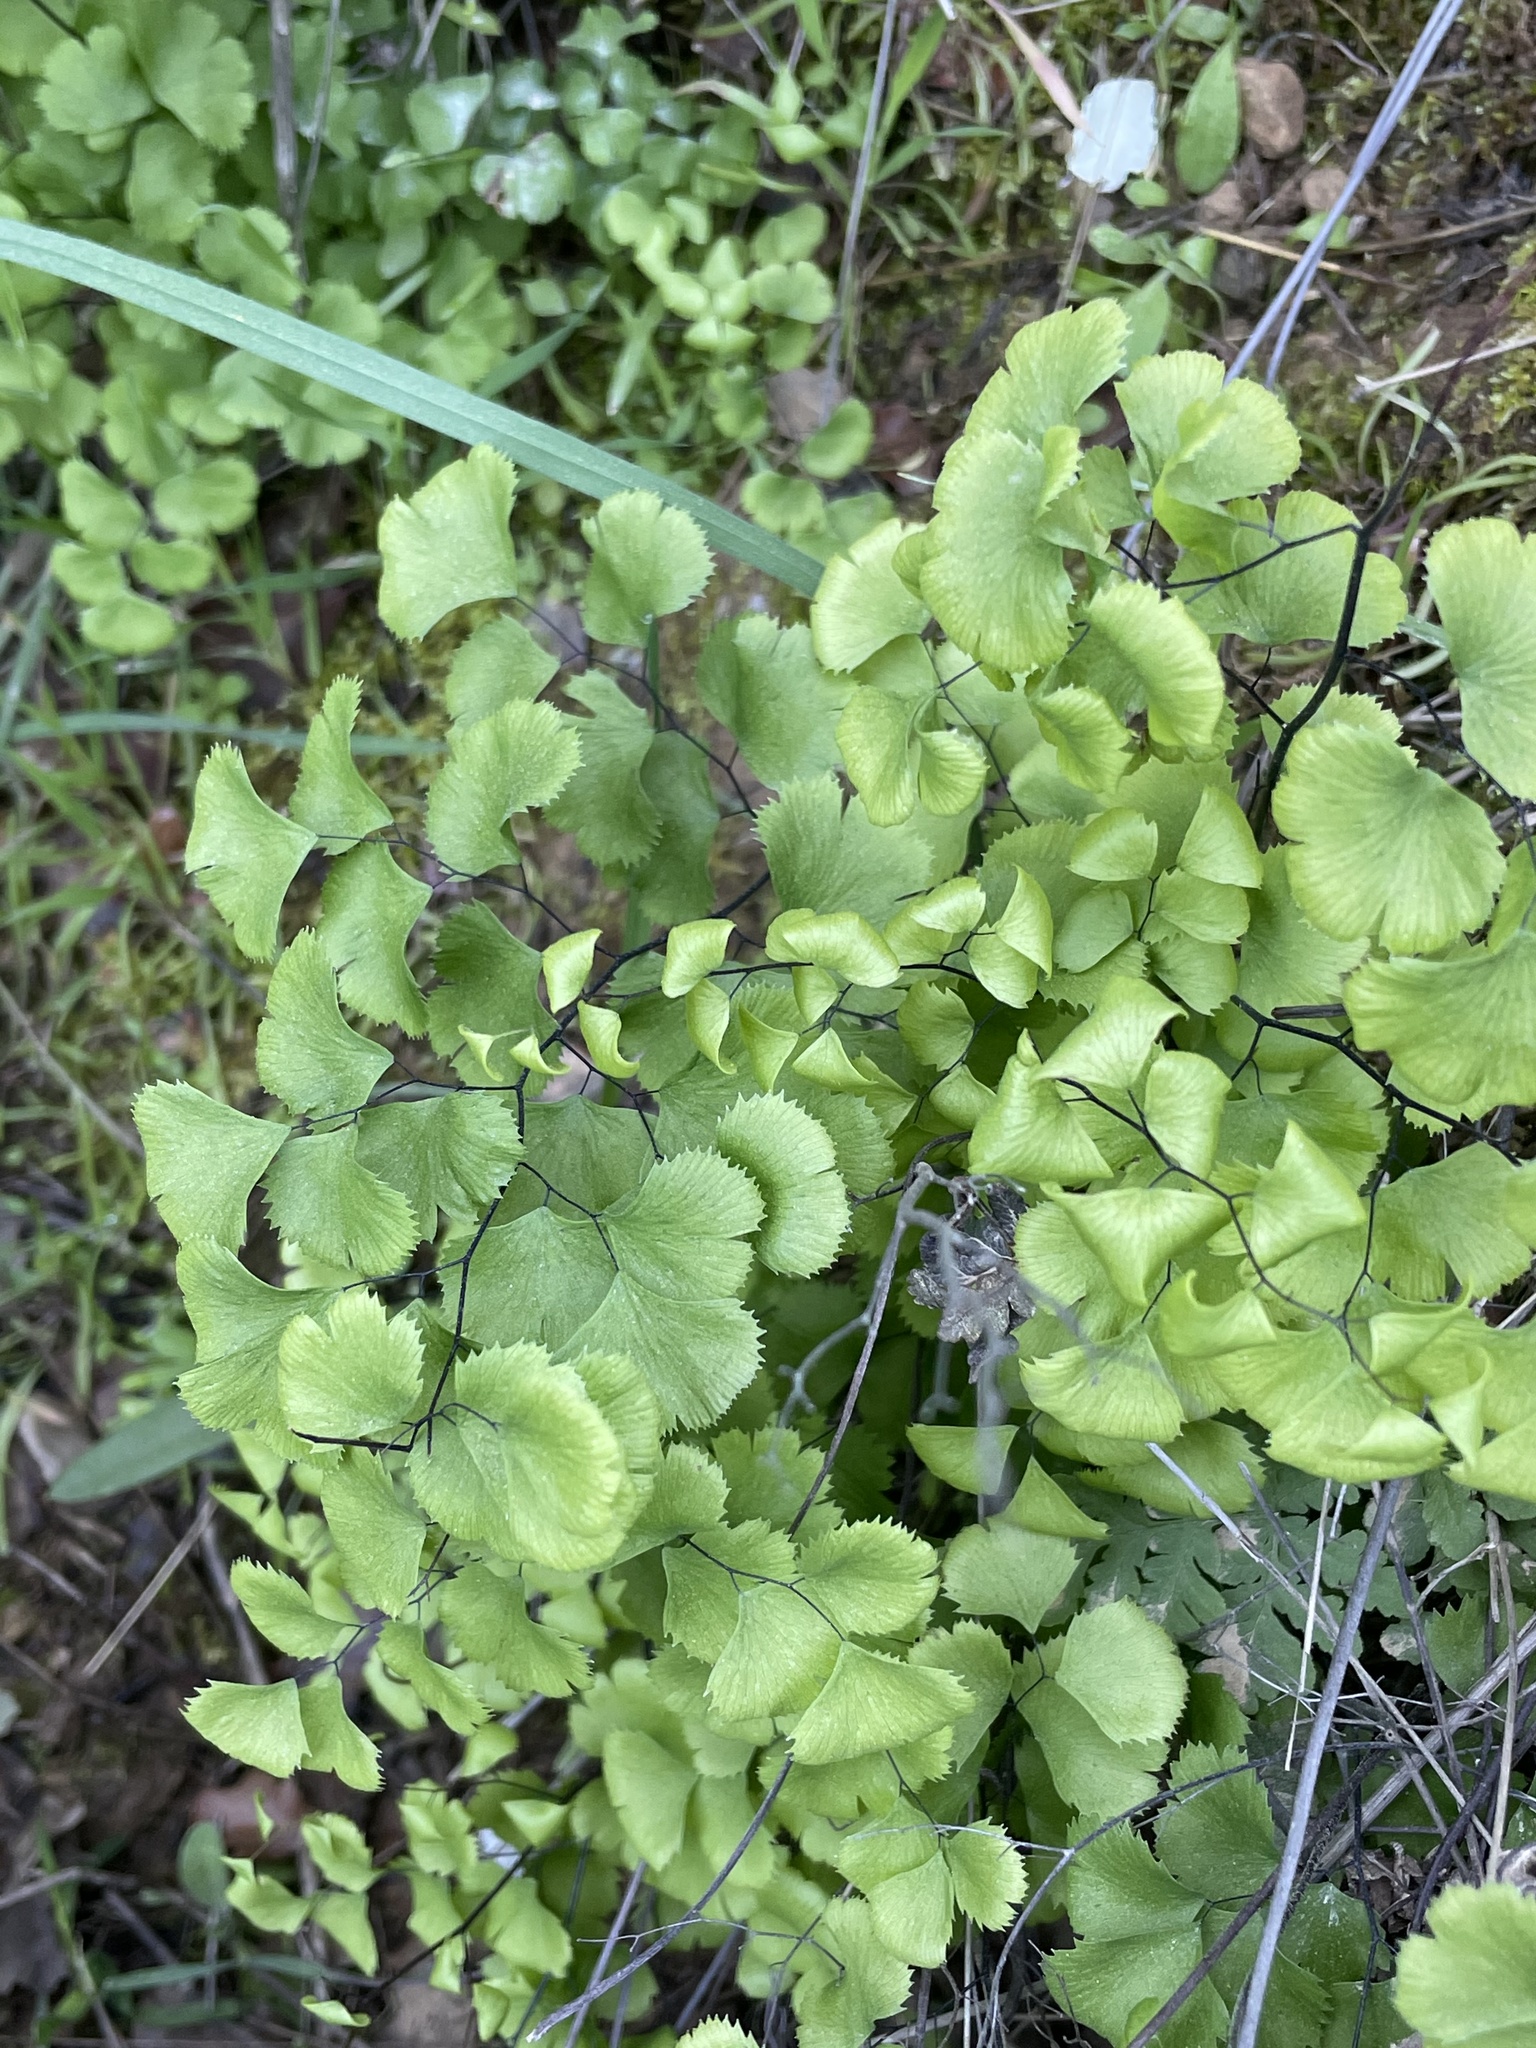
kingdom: Plantae
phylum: Tracheophyta
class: Polypodiopsida
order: Polypodiales
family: Pteridaceae
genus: Adiantum
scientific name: Adiantum jordanii
